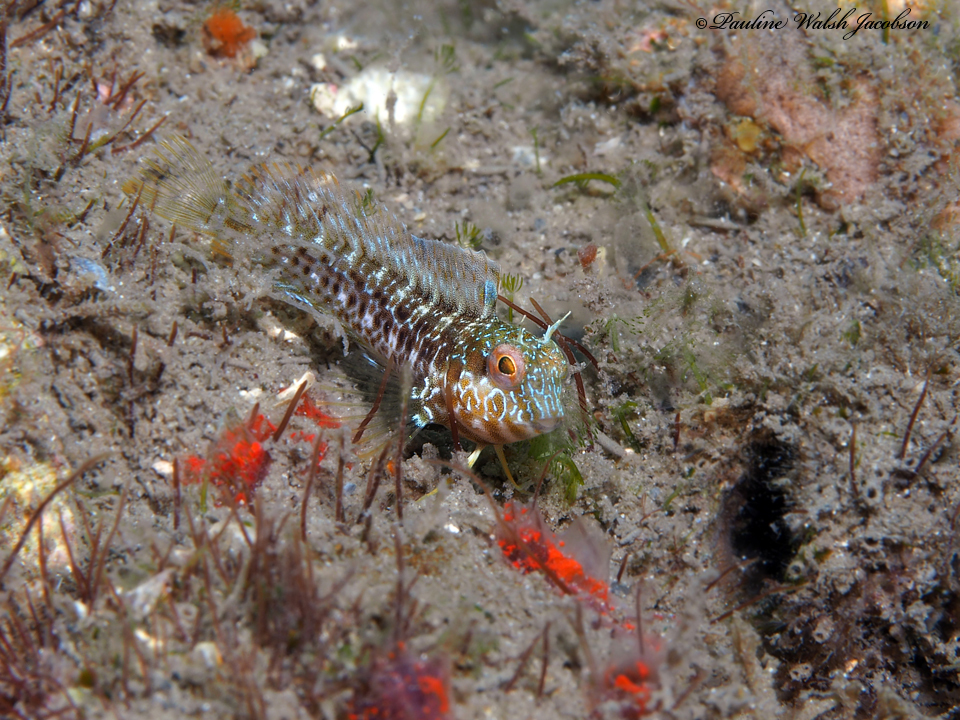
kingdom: Animalia
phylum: Chordata
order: Perciformes
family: Blenniidae
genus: Parablennius
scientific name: Parablennius marmoreus
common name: Seaweed blenny
